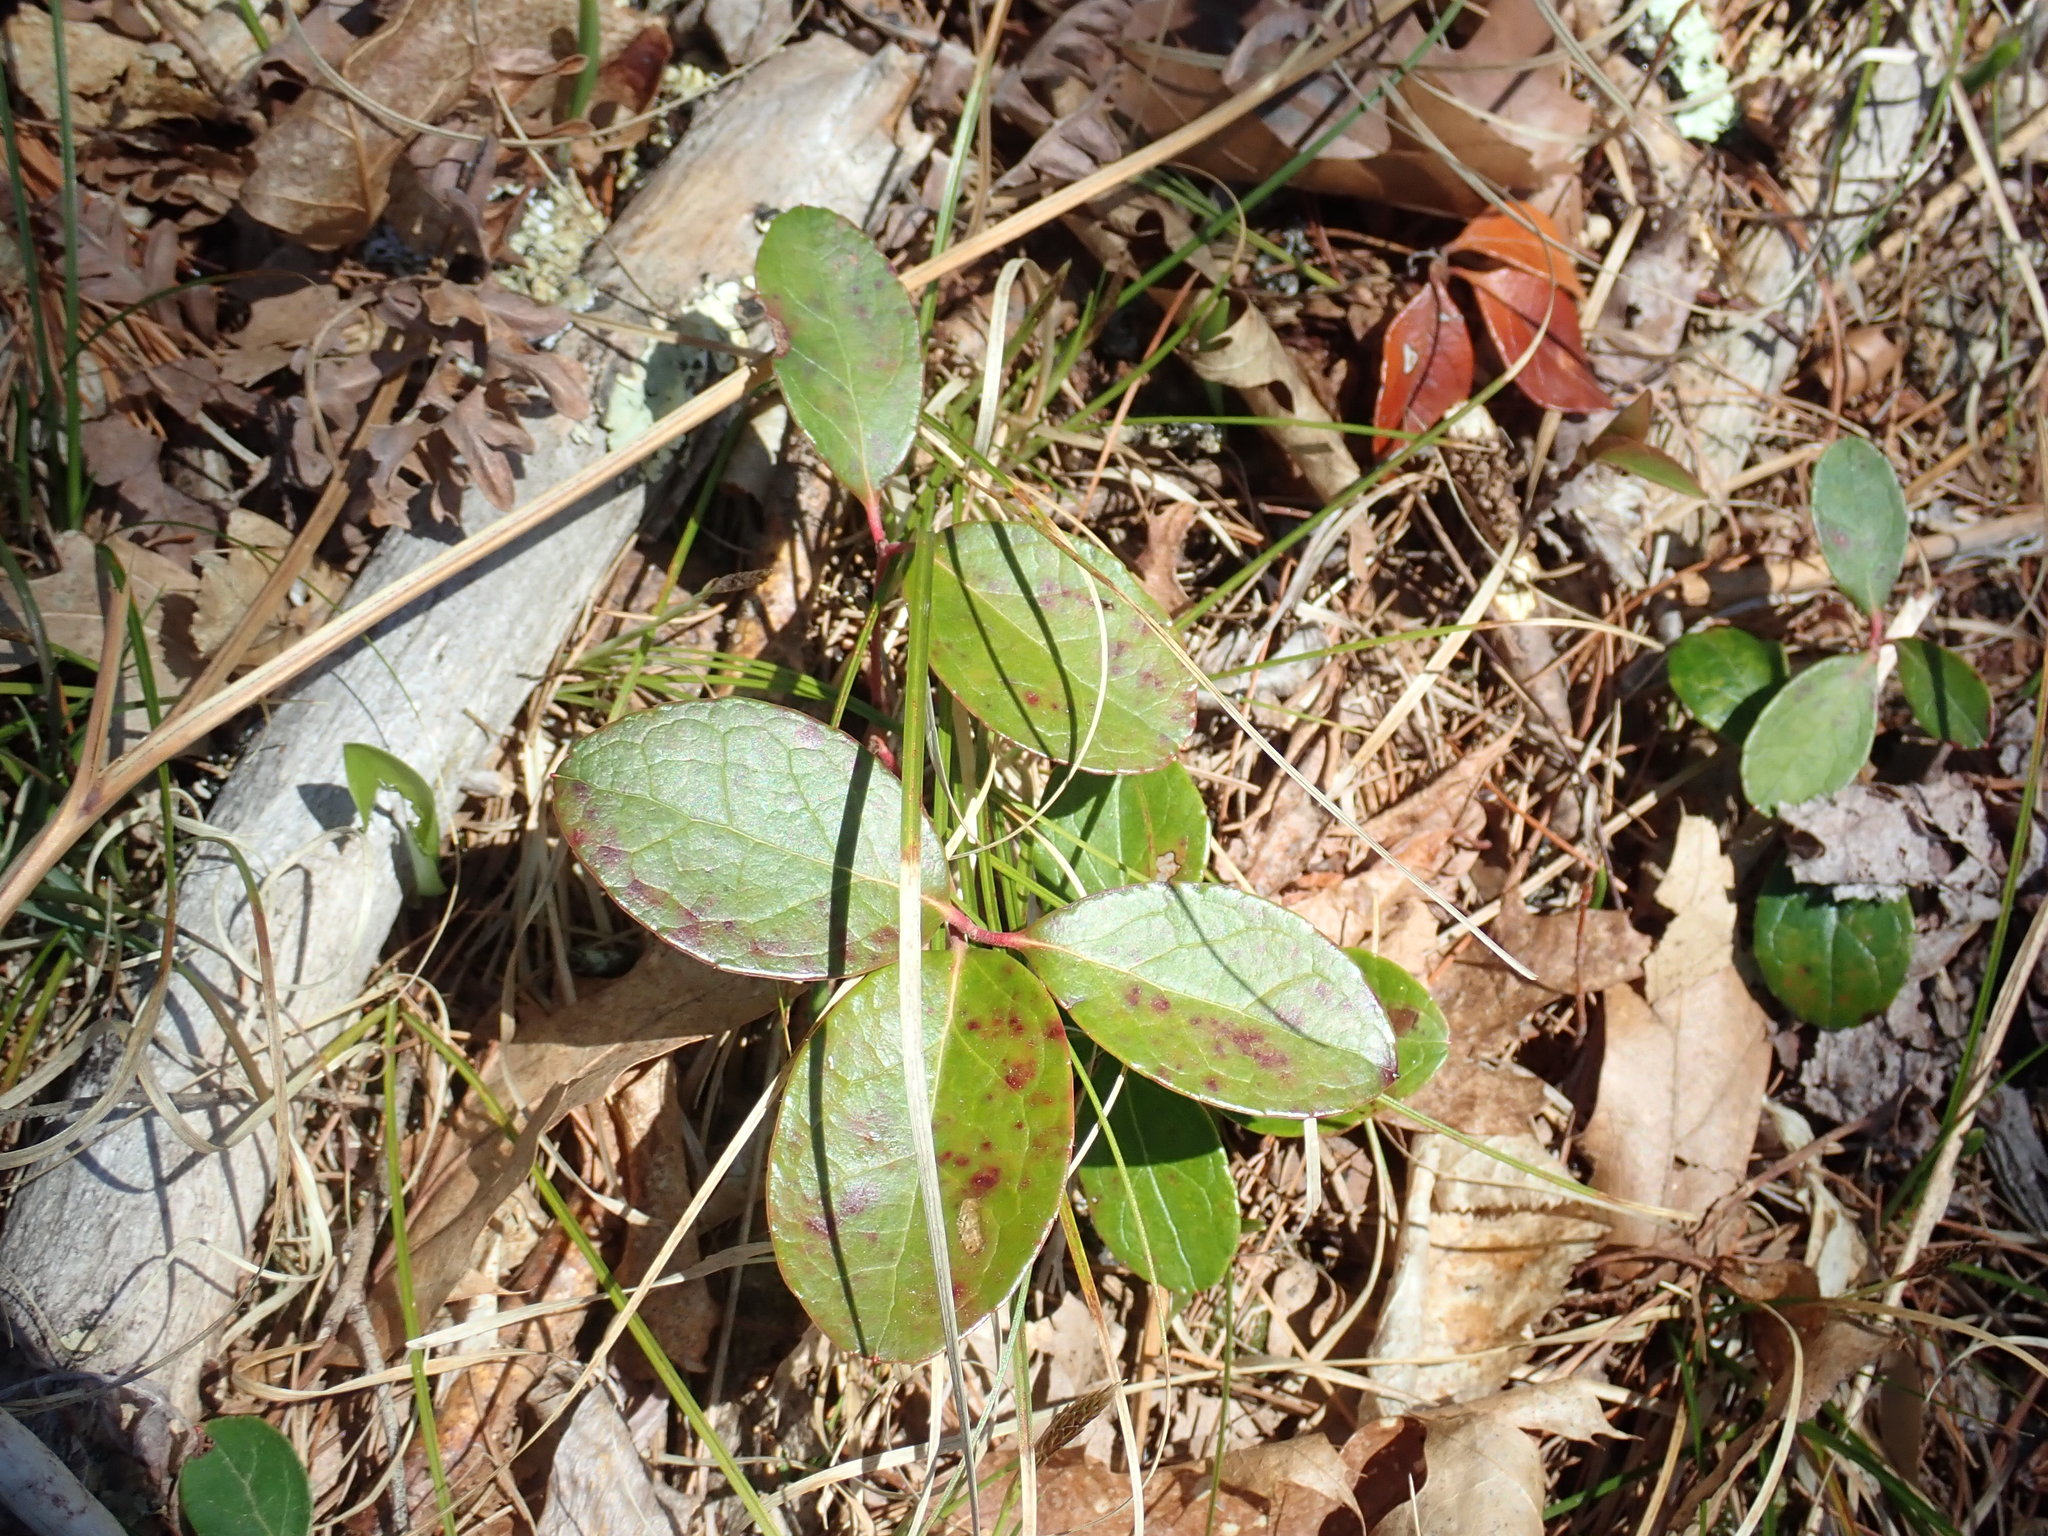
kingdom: Plantae
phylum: Tracheophyta
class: Magnoliopsida
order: Ericales
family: Ericaceae
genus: Gaultheria
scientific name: Gaultheria procumbens
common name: Checkerberry
